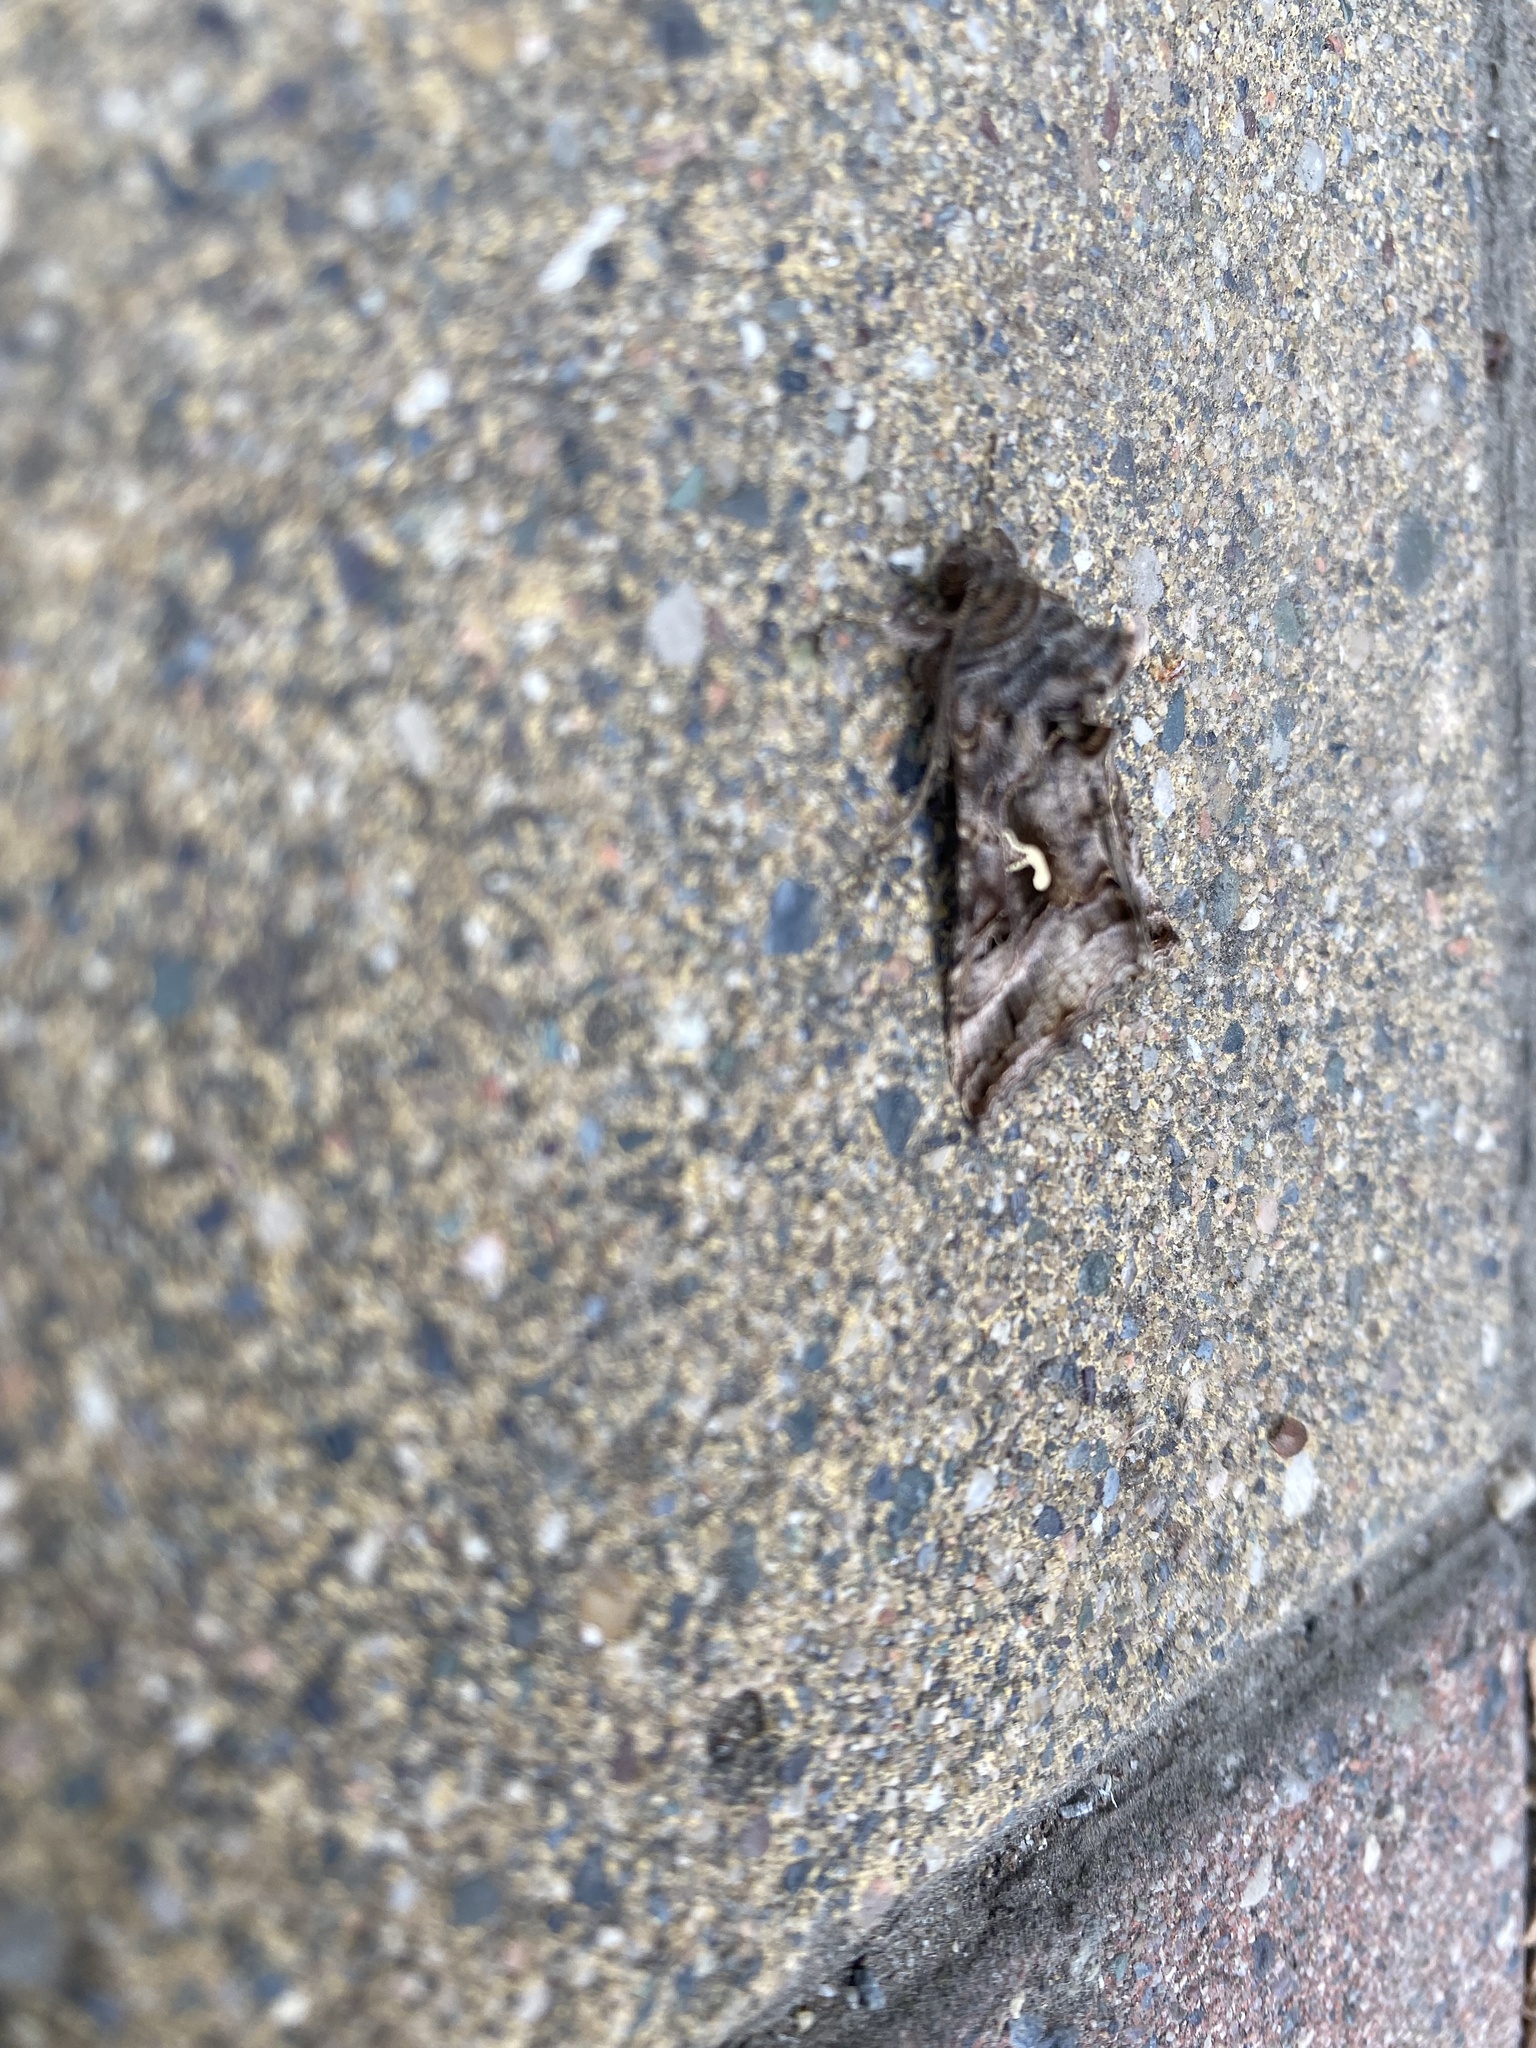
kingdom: Animalia
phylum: Arthropoda
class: Insecta
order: Lepidoptera
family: Noctuidae
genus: Autographa
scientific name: Autographa gamma
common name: Silver y
